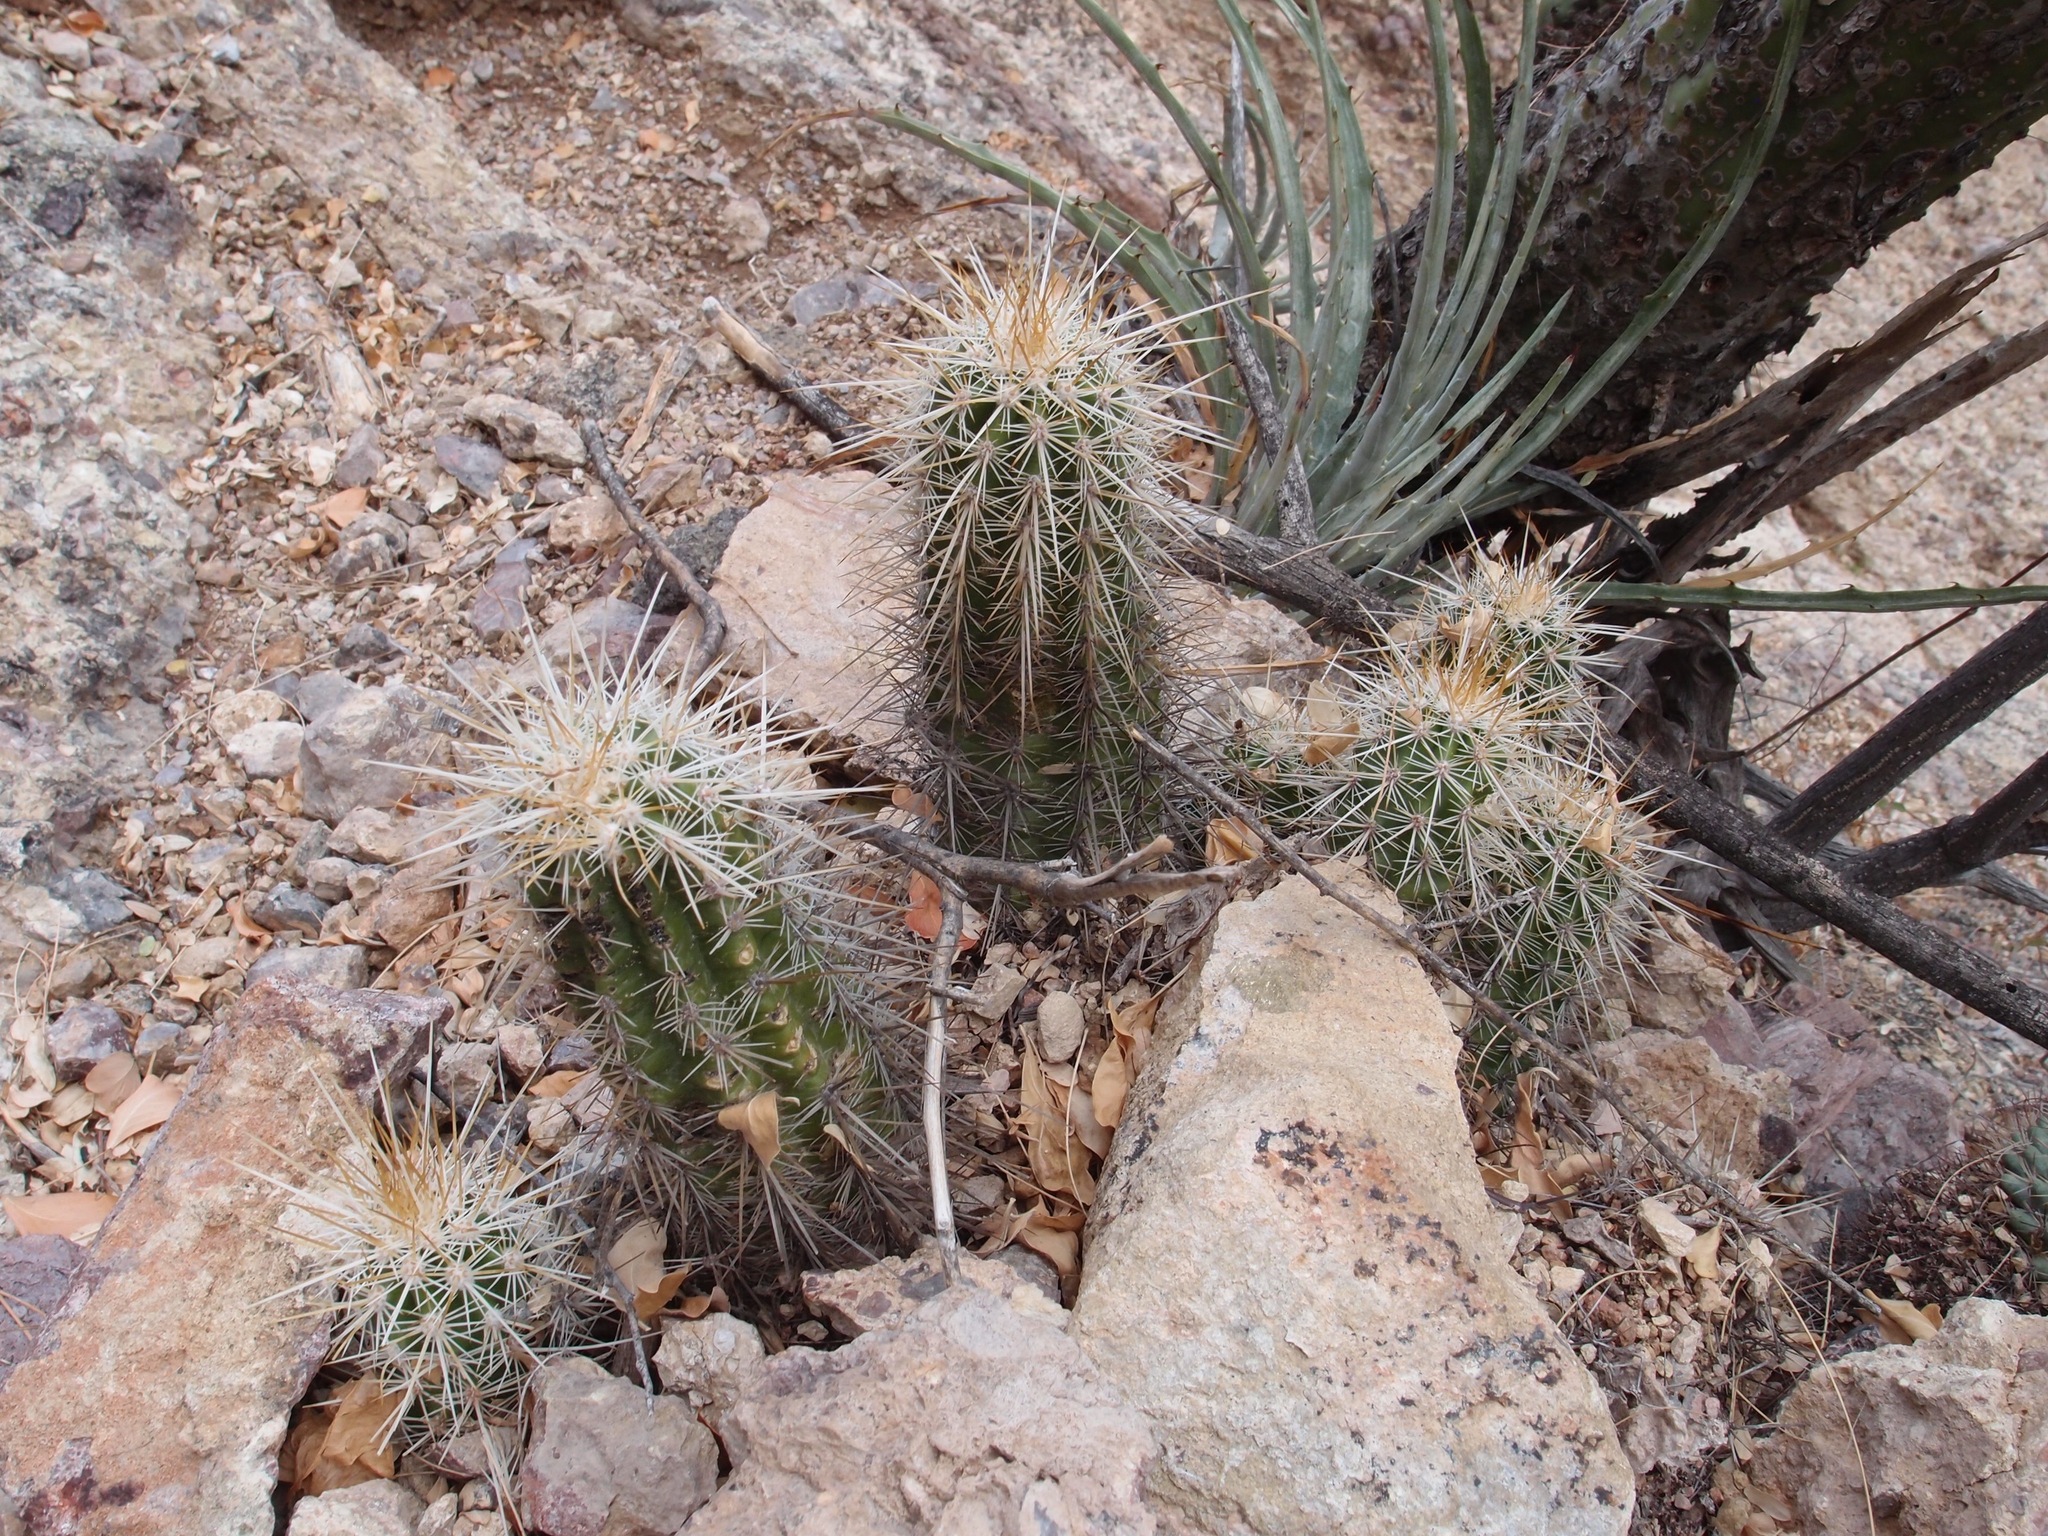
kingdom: Plantae
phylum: Tracheophyta
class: Magnoliopsida
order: Caryophyllales
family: Cactaceae
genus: Echinocereus
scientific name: Echinocereus llanurensis
